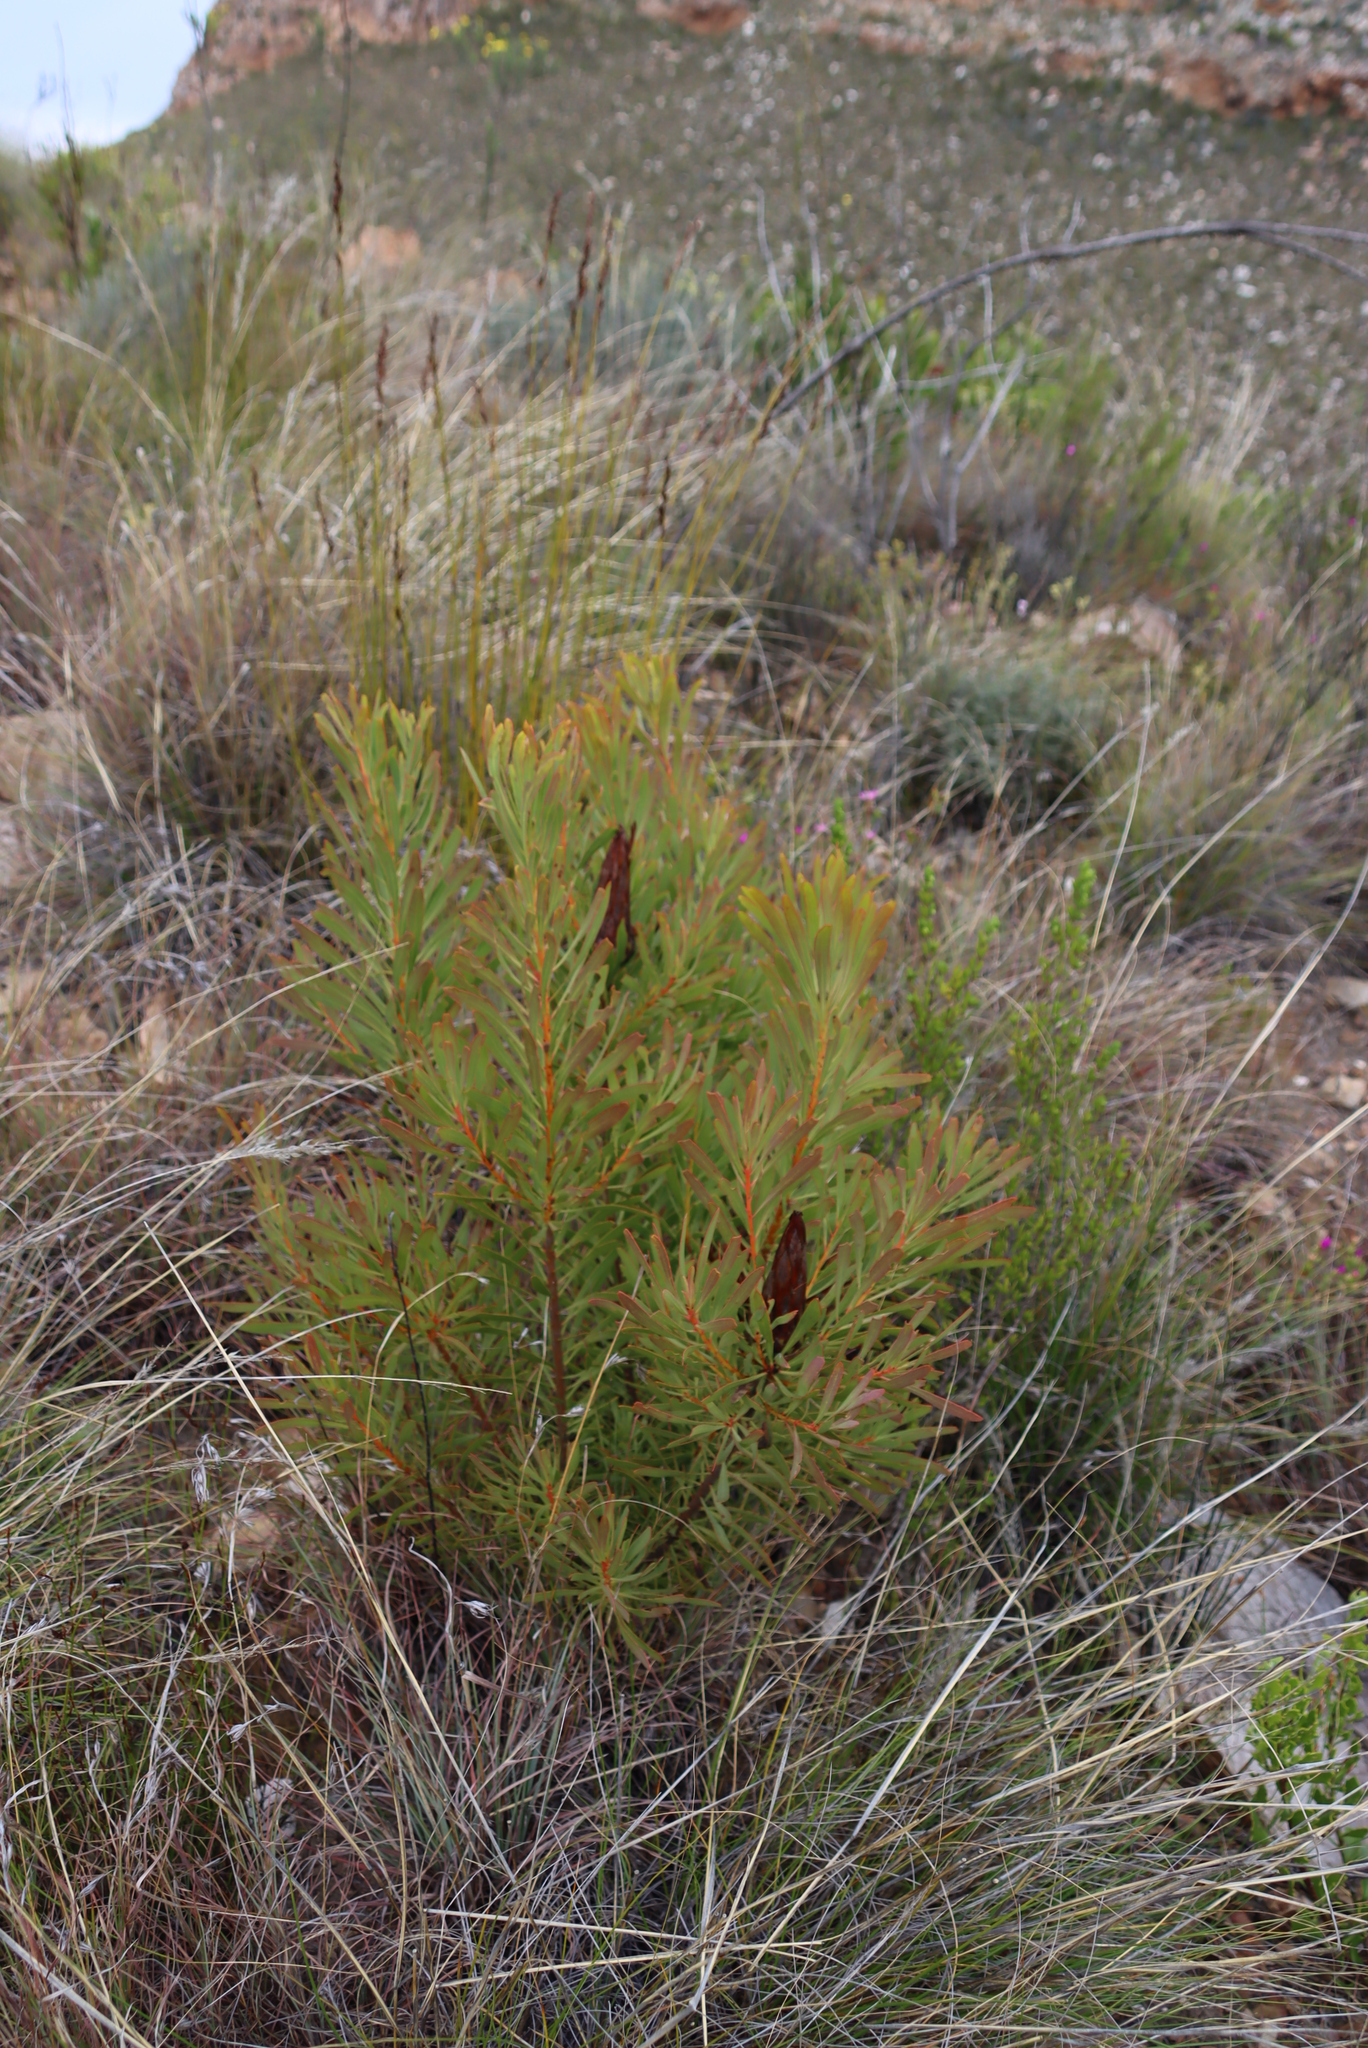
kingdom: Plantae
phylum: Tracheophyta
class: Magnoliopsida
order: Proteales
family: Proteaceae
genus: Protea
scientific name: Protea repens
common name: Sugarbush
